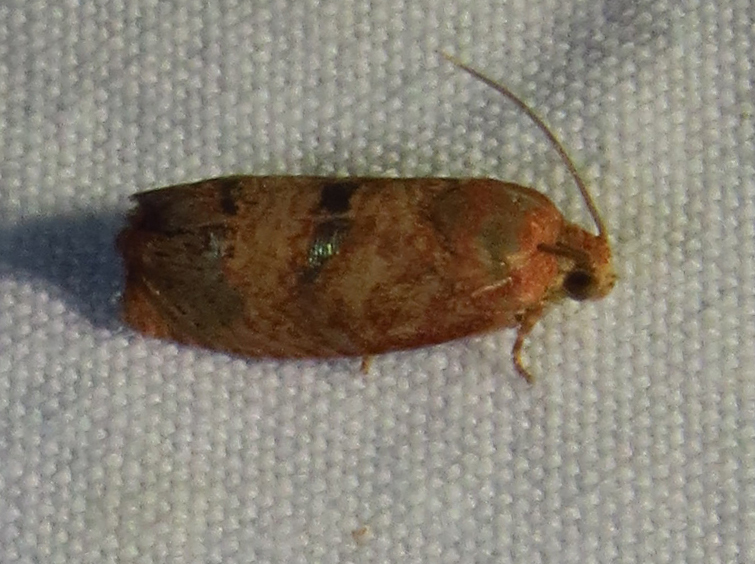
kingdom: Animalia
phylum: Arthropoda
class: Insecta
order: Lepidoptera
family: Tortricidae
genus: Cydia
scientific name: Cydia latiferreana
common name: Filbertworm moth
